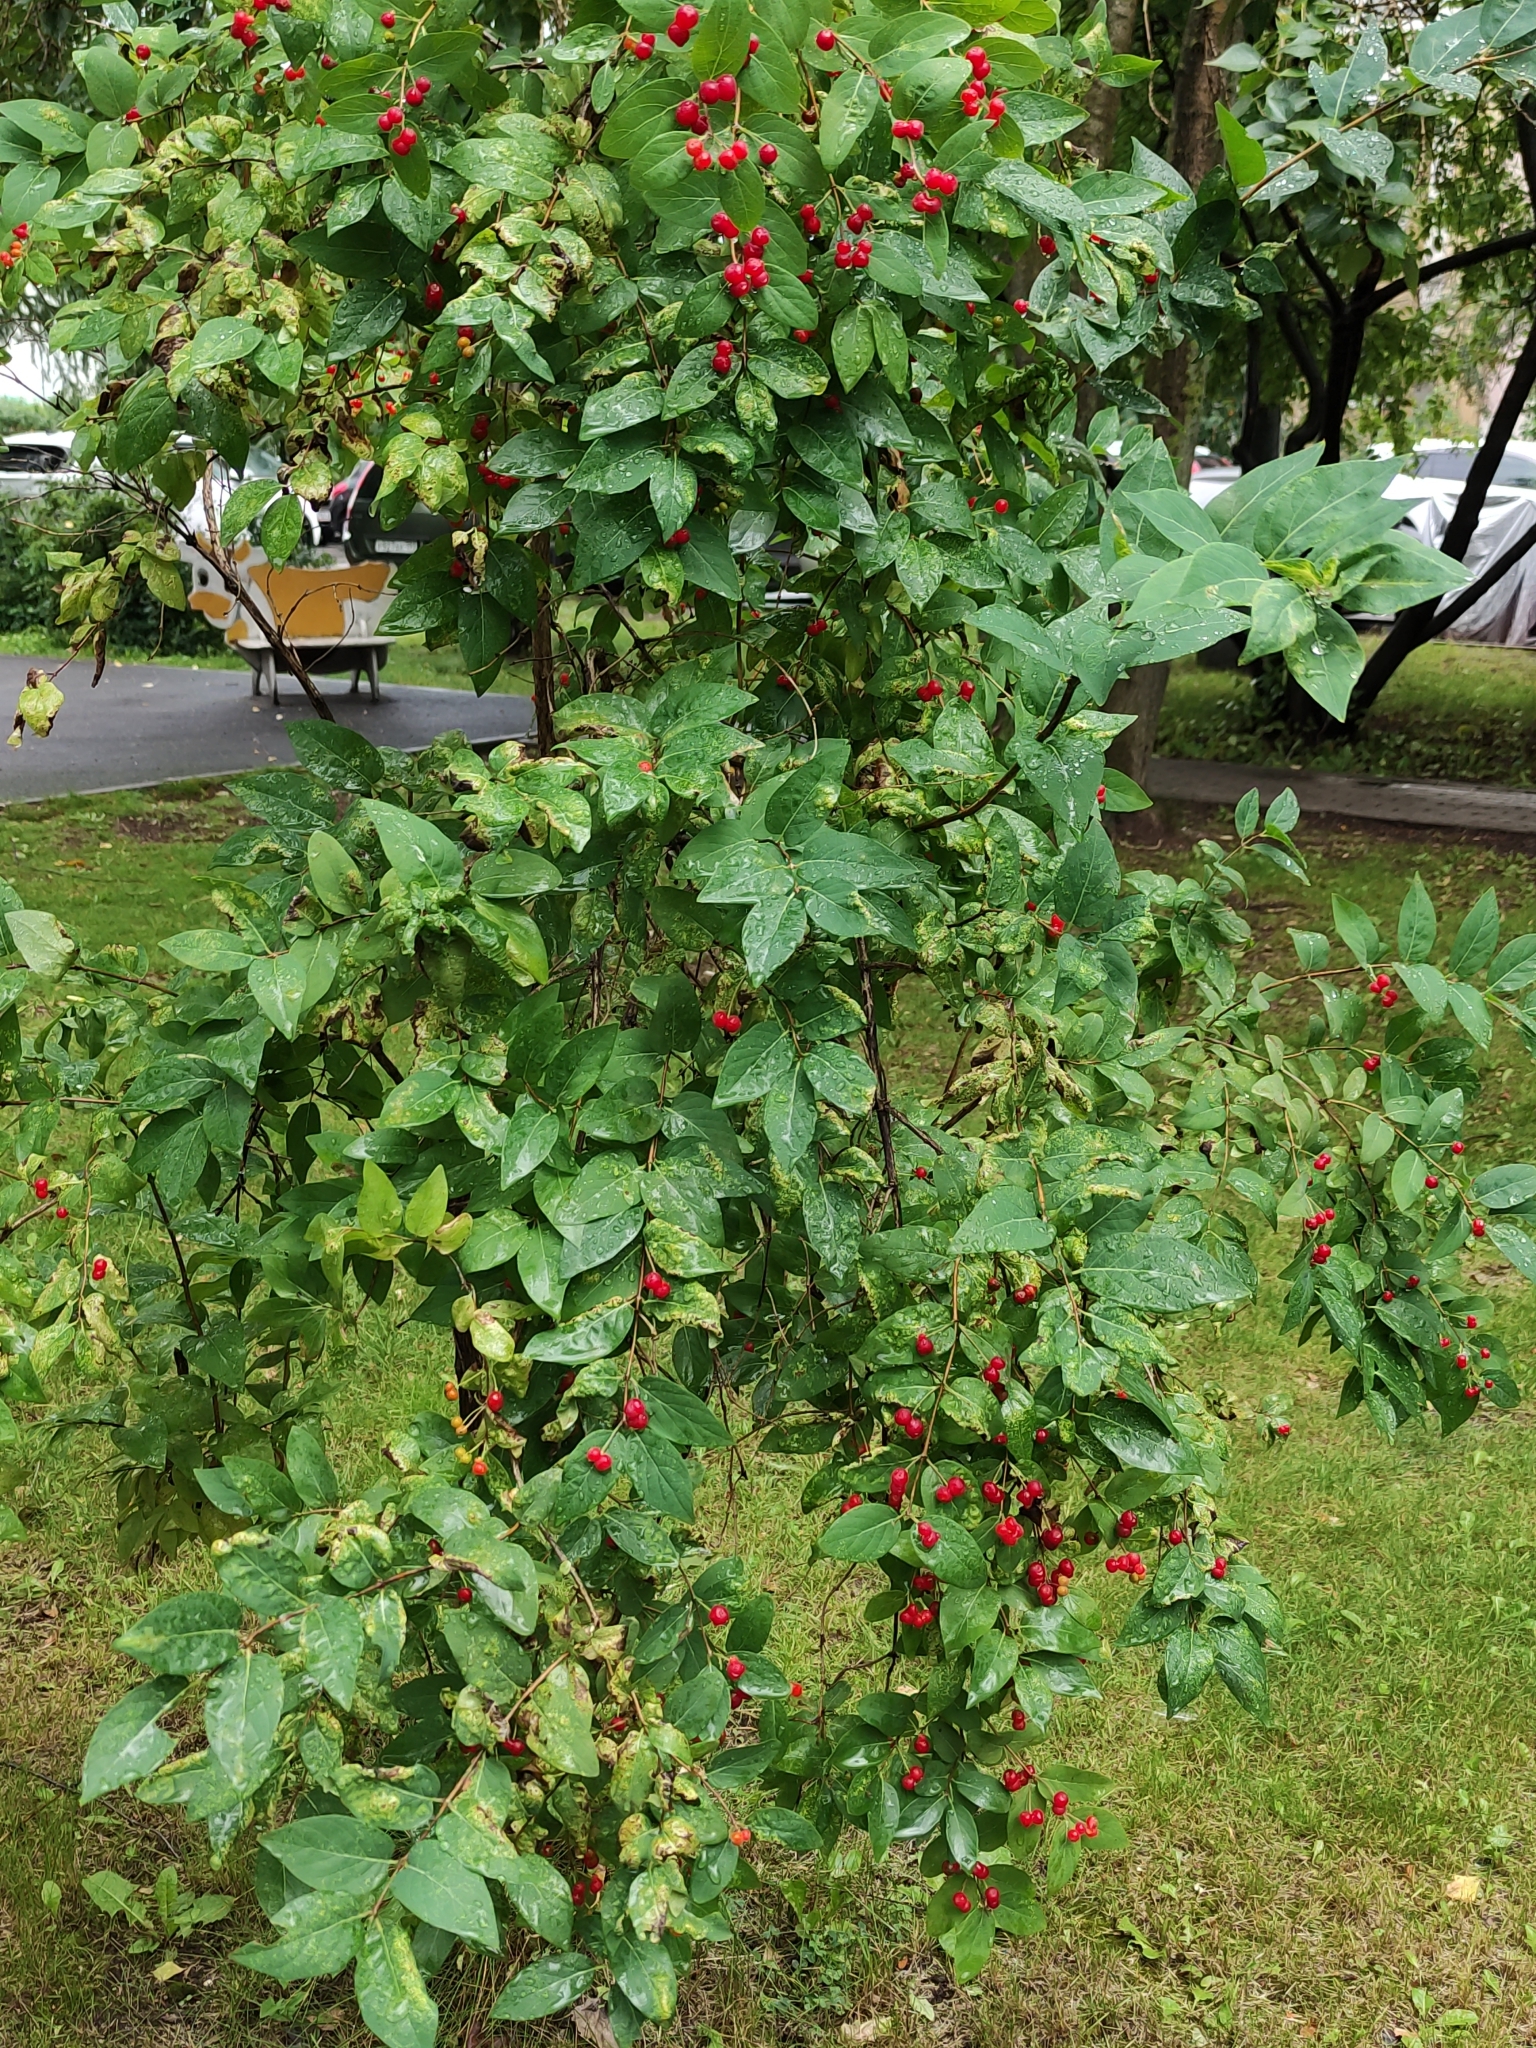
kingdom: Plantae
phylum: Tracheophyta
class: Magnoliopsida
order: Dipsacales
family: Caprifoliaceae
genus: Lonicera
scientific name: Lonicera tatarica
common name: Tatarian honeysuckle
